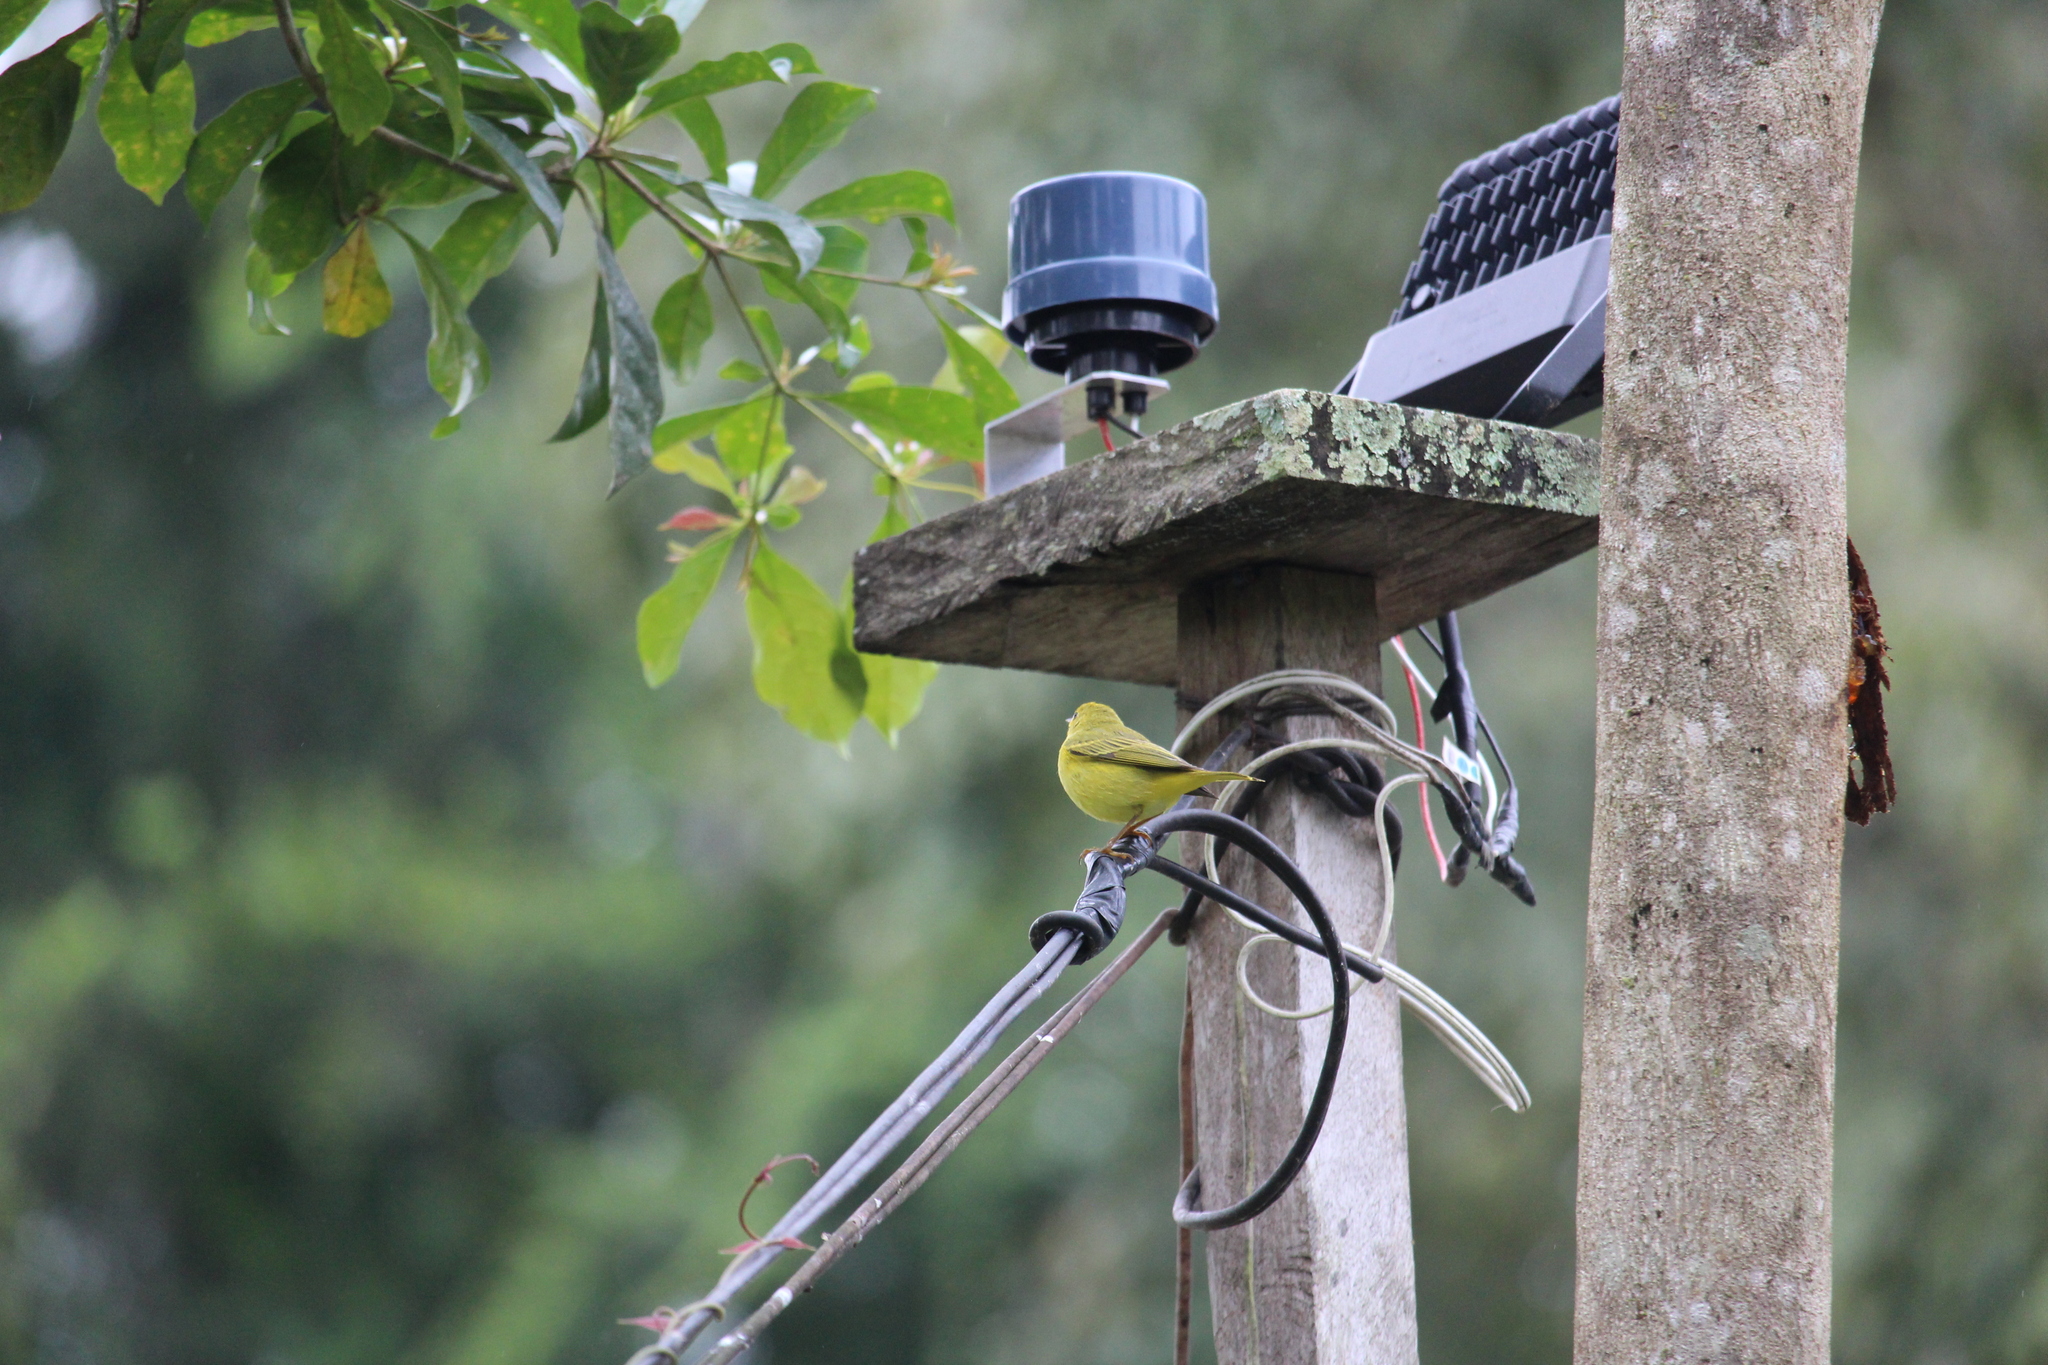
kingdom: Animalia
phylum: Chordata
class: Aves
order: Passeriformes
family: Parulidae
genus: Setophaga
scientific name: Setophaga petechia
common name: Yellow warbler
